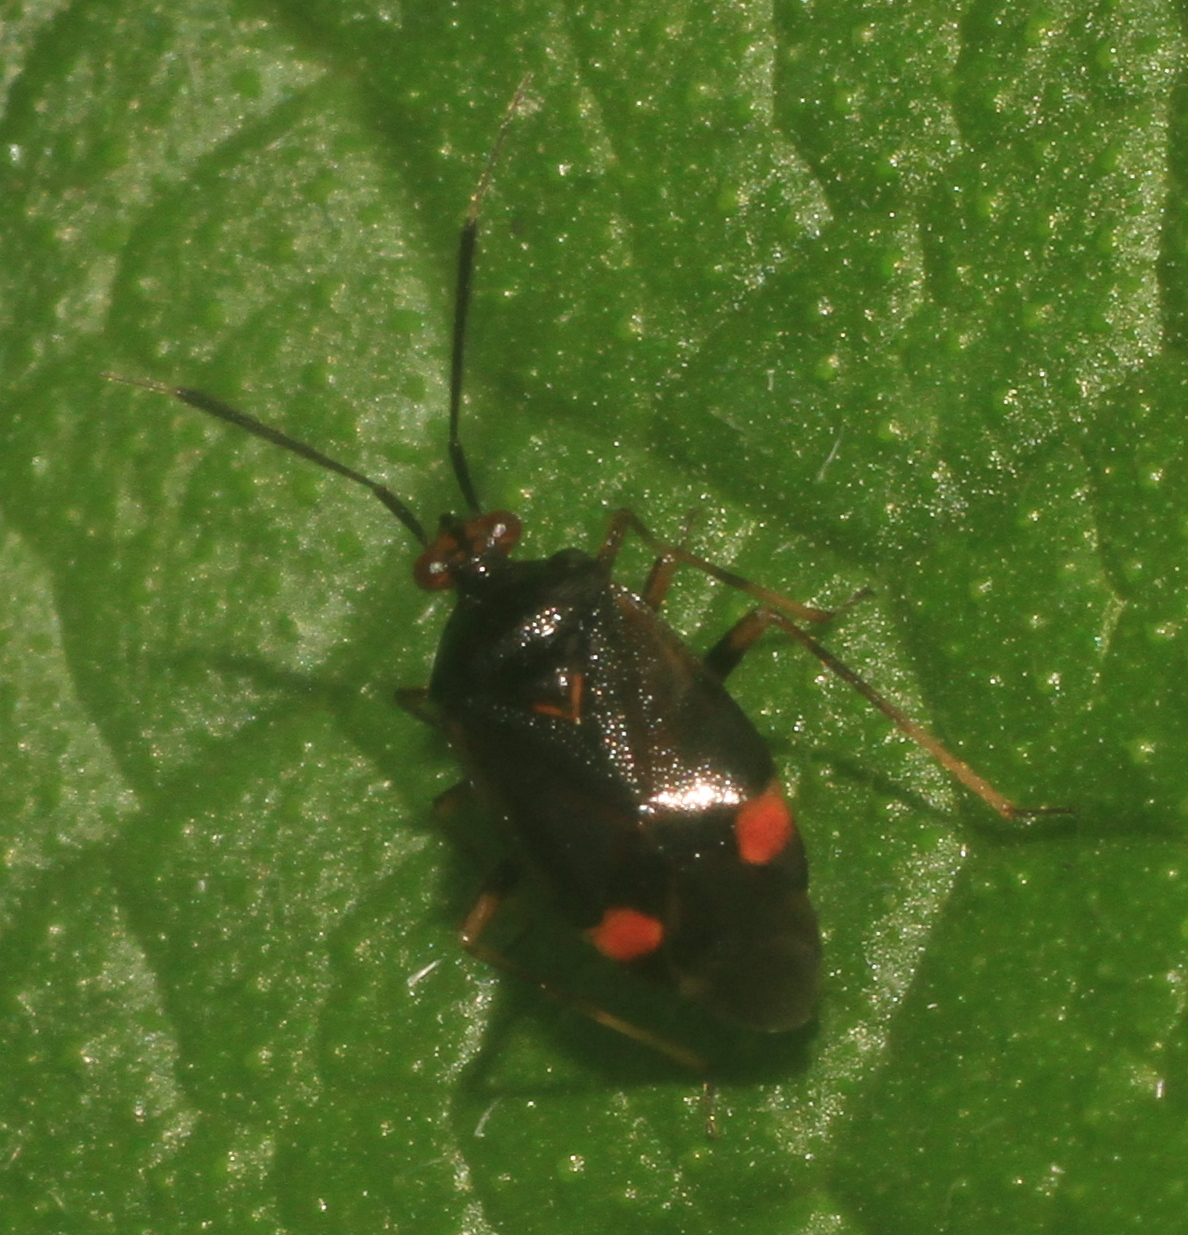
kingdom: Animalia
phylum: Arthropoda
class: Insecta
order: Hemiptera
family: Miridae
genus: Deraeocoris
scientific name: Deraeocoris ruber
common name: Plant bug
